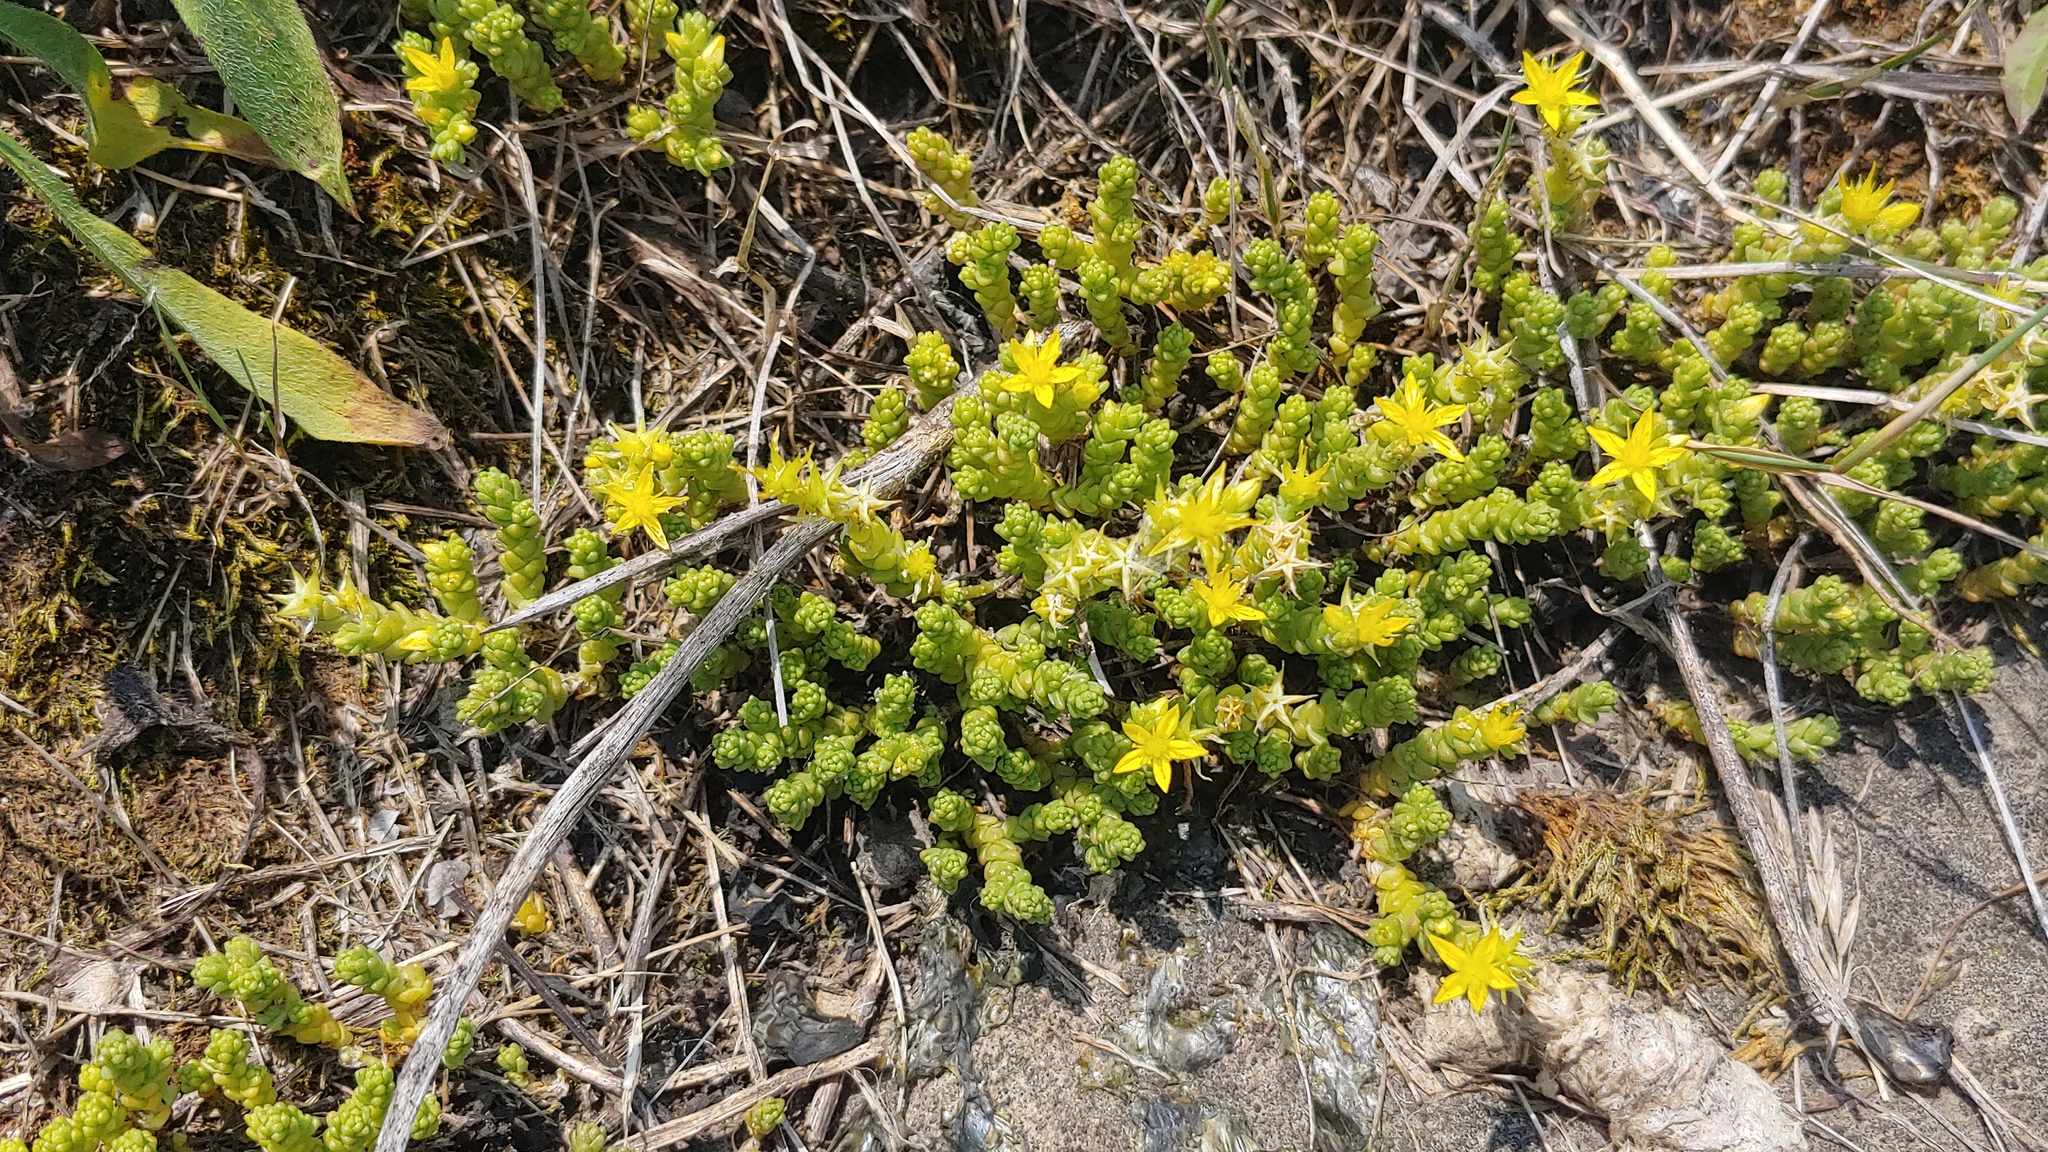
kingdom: Plantae
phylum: Tracheophyta
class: Magnoliopsida
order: Saxifragales
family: Crassulaceae
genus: Sedum
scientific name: Sedum acre
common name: Biting stonecrop
